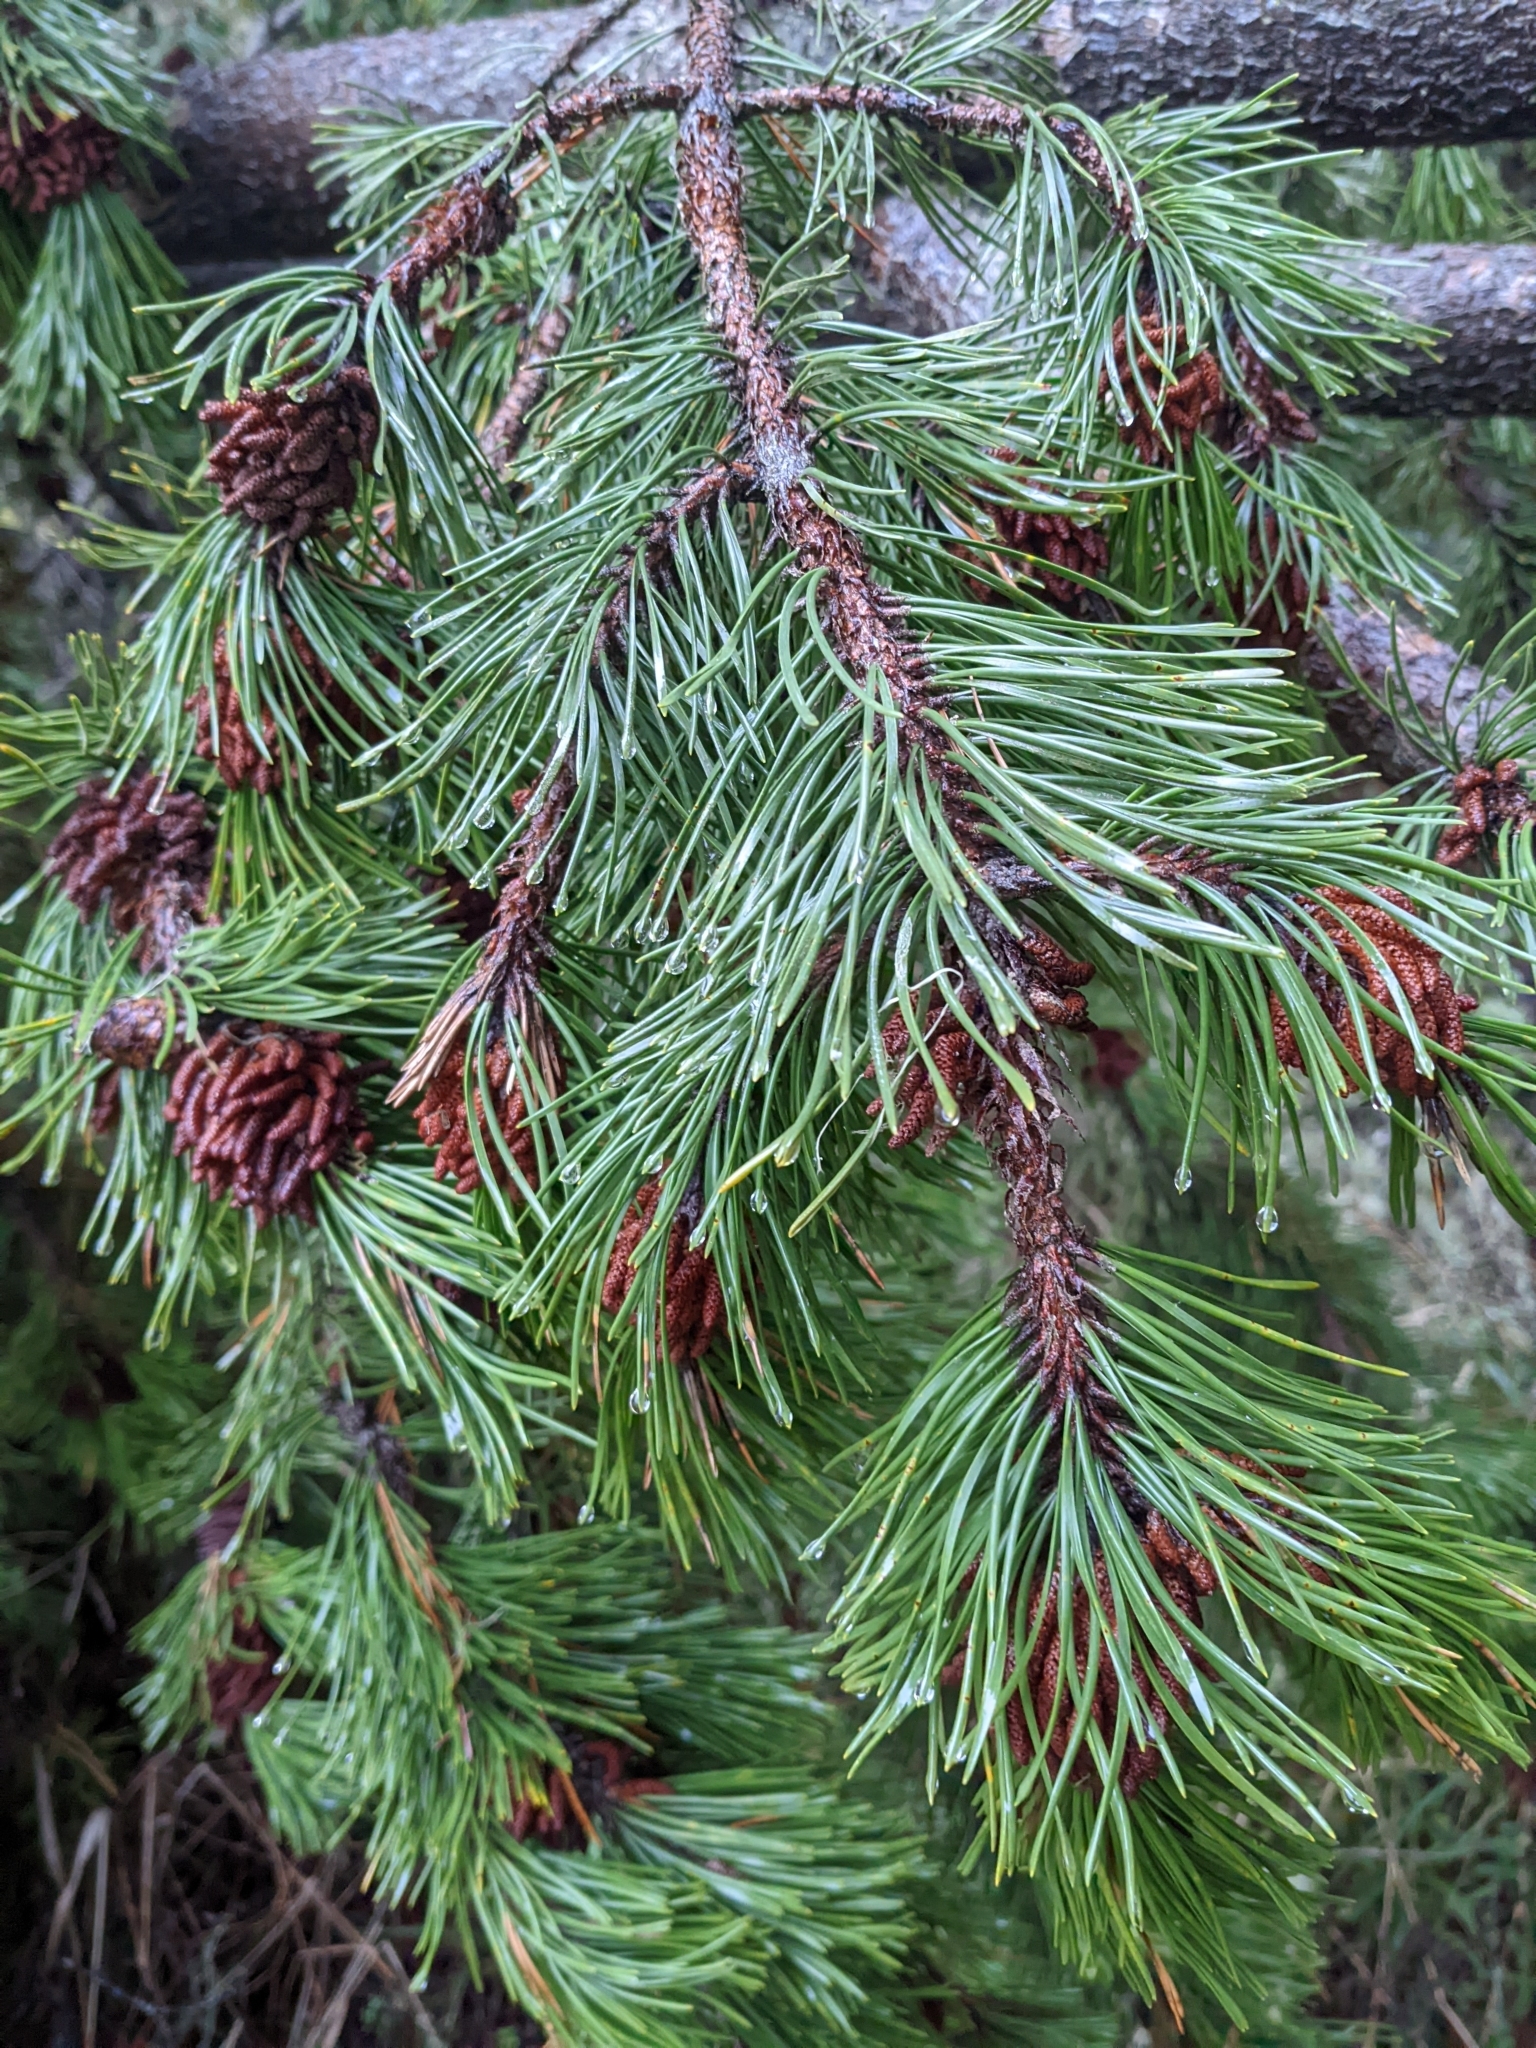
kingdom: Plantae
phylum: Tracheophyta
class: Pinopsida
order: Pinales
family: Pinaceae
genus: Pinus
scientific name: Pinus contorta
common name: Lodgepole pine
